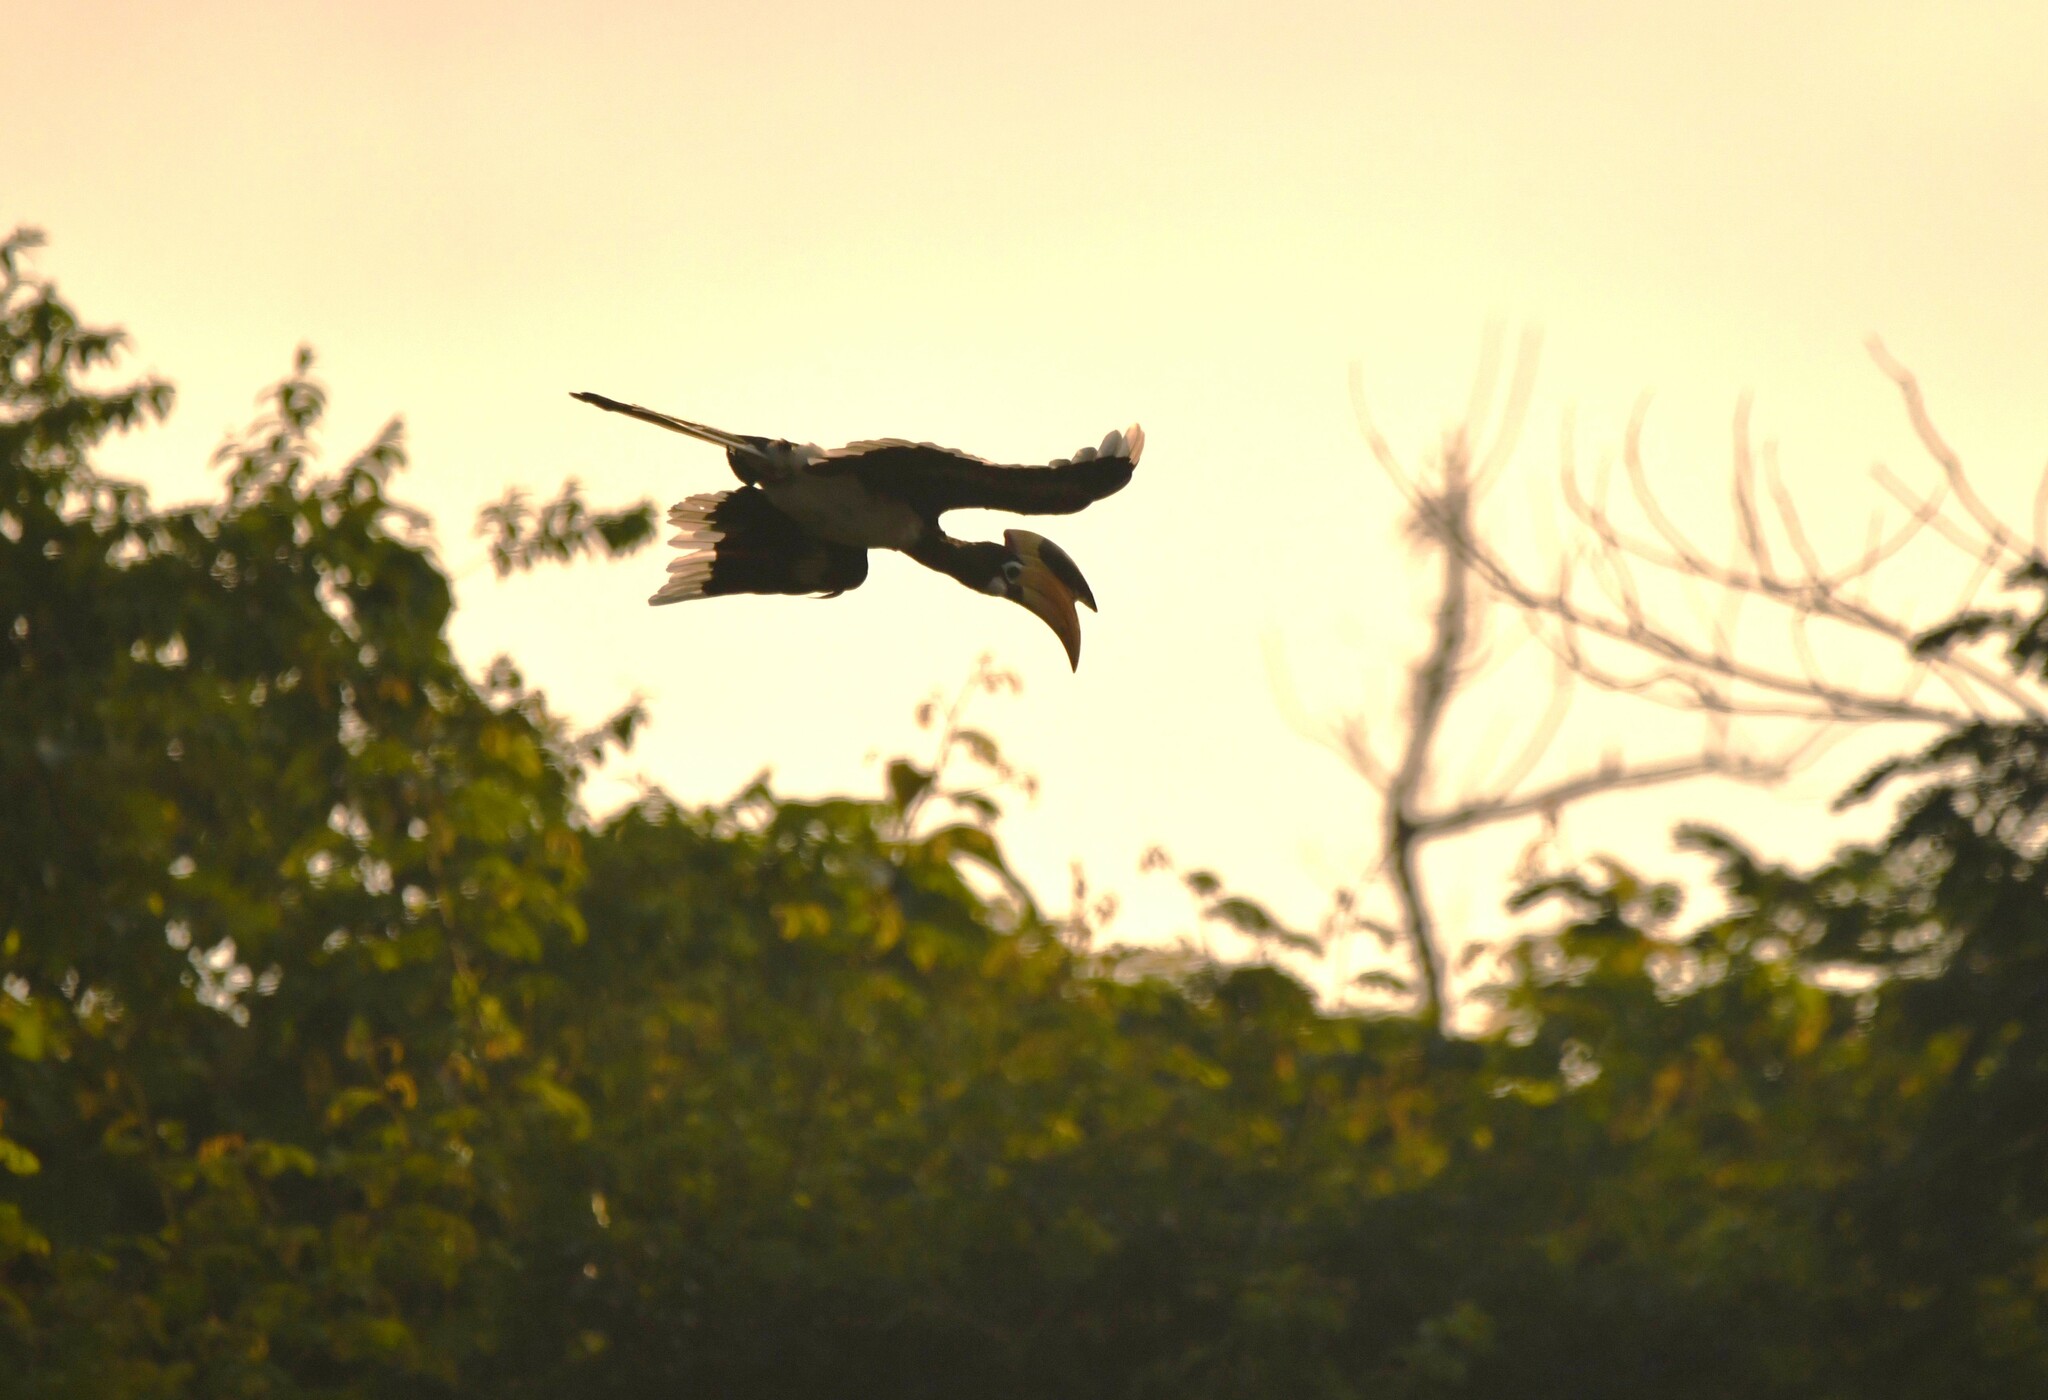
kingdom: Animalia
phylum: Chordata
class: Aves
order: Bucerotiformes
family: Bucerotidae
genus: Anthracoceros
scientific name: Anthracoceros coronatus
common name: Malabar pied hornbill
